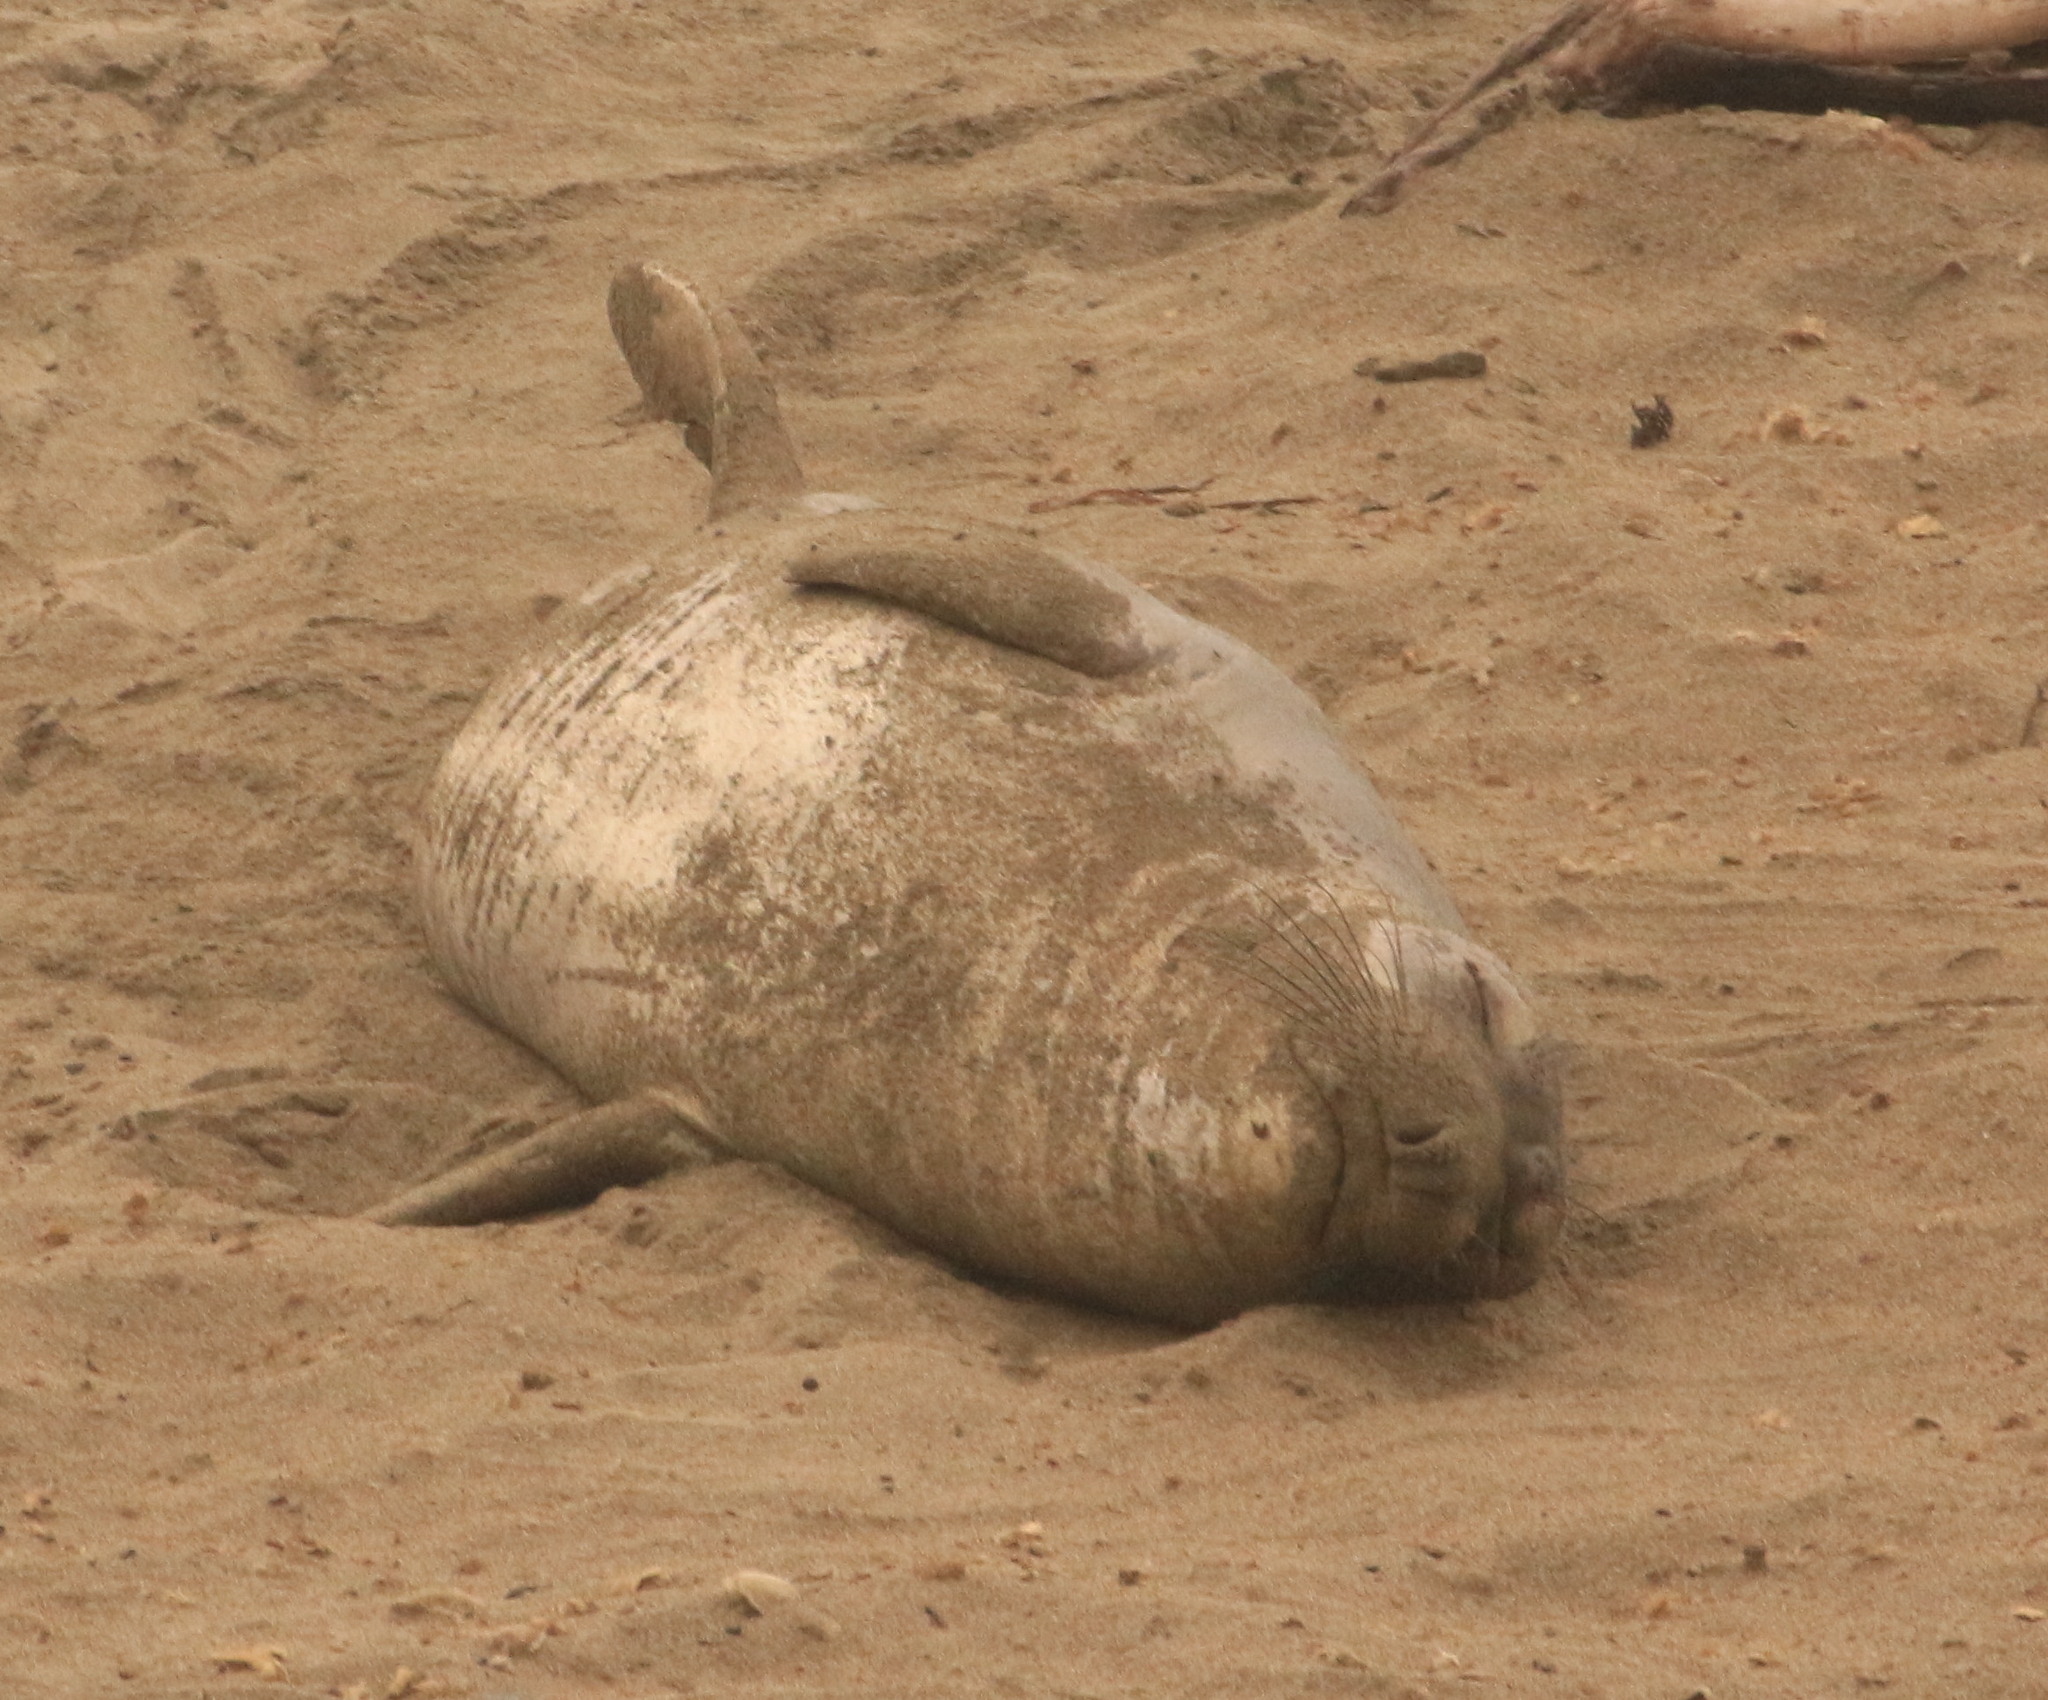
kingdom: Animalia
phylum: Chordata
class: Mammalia
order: Carnivora
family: Phocidae
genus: Mirounga
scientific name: Mirounga angustirostris
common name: Northern elephant seal
